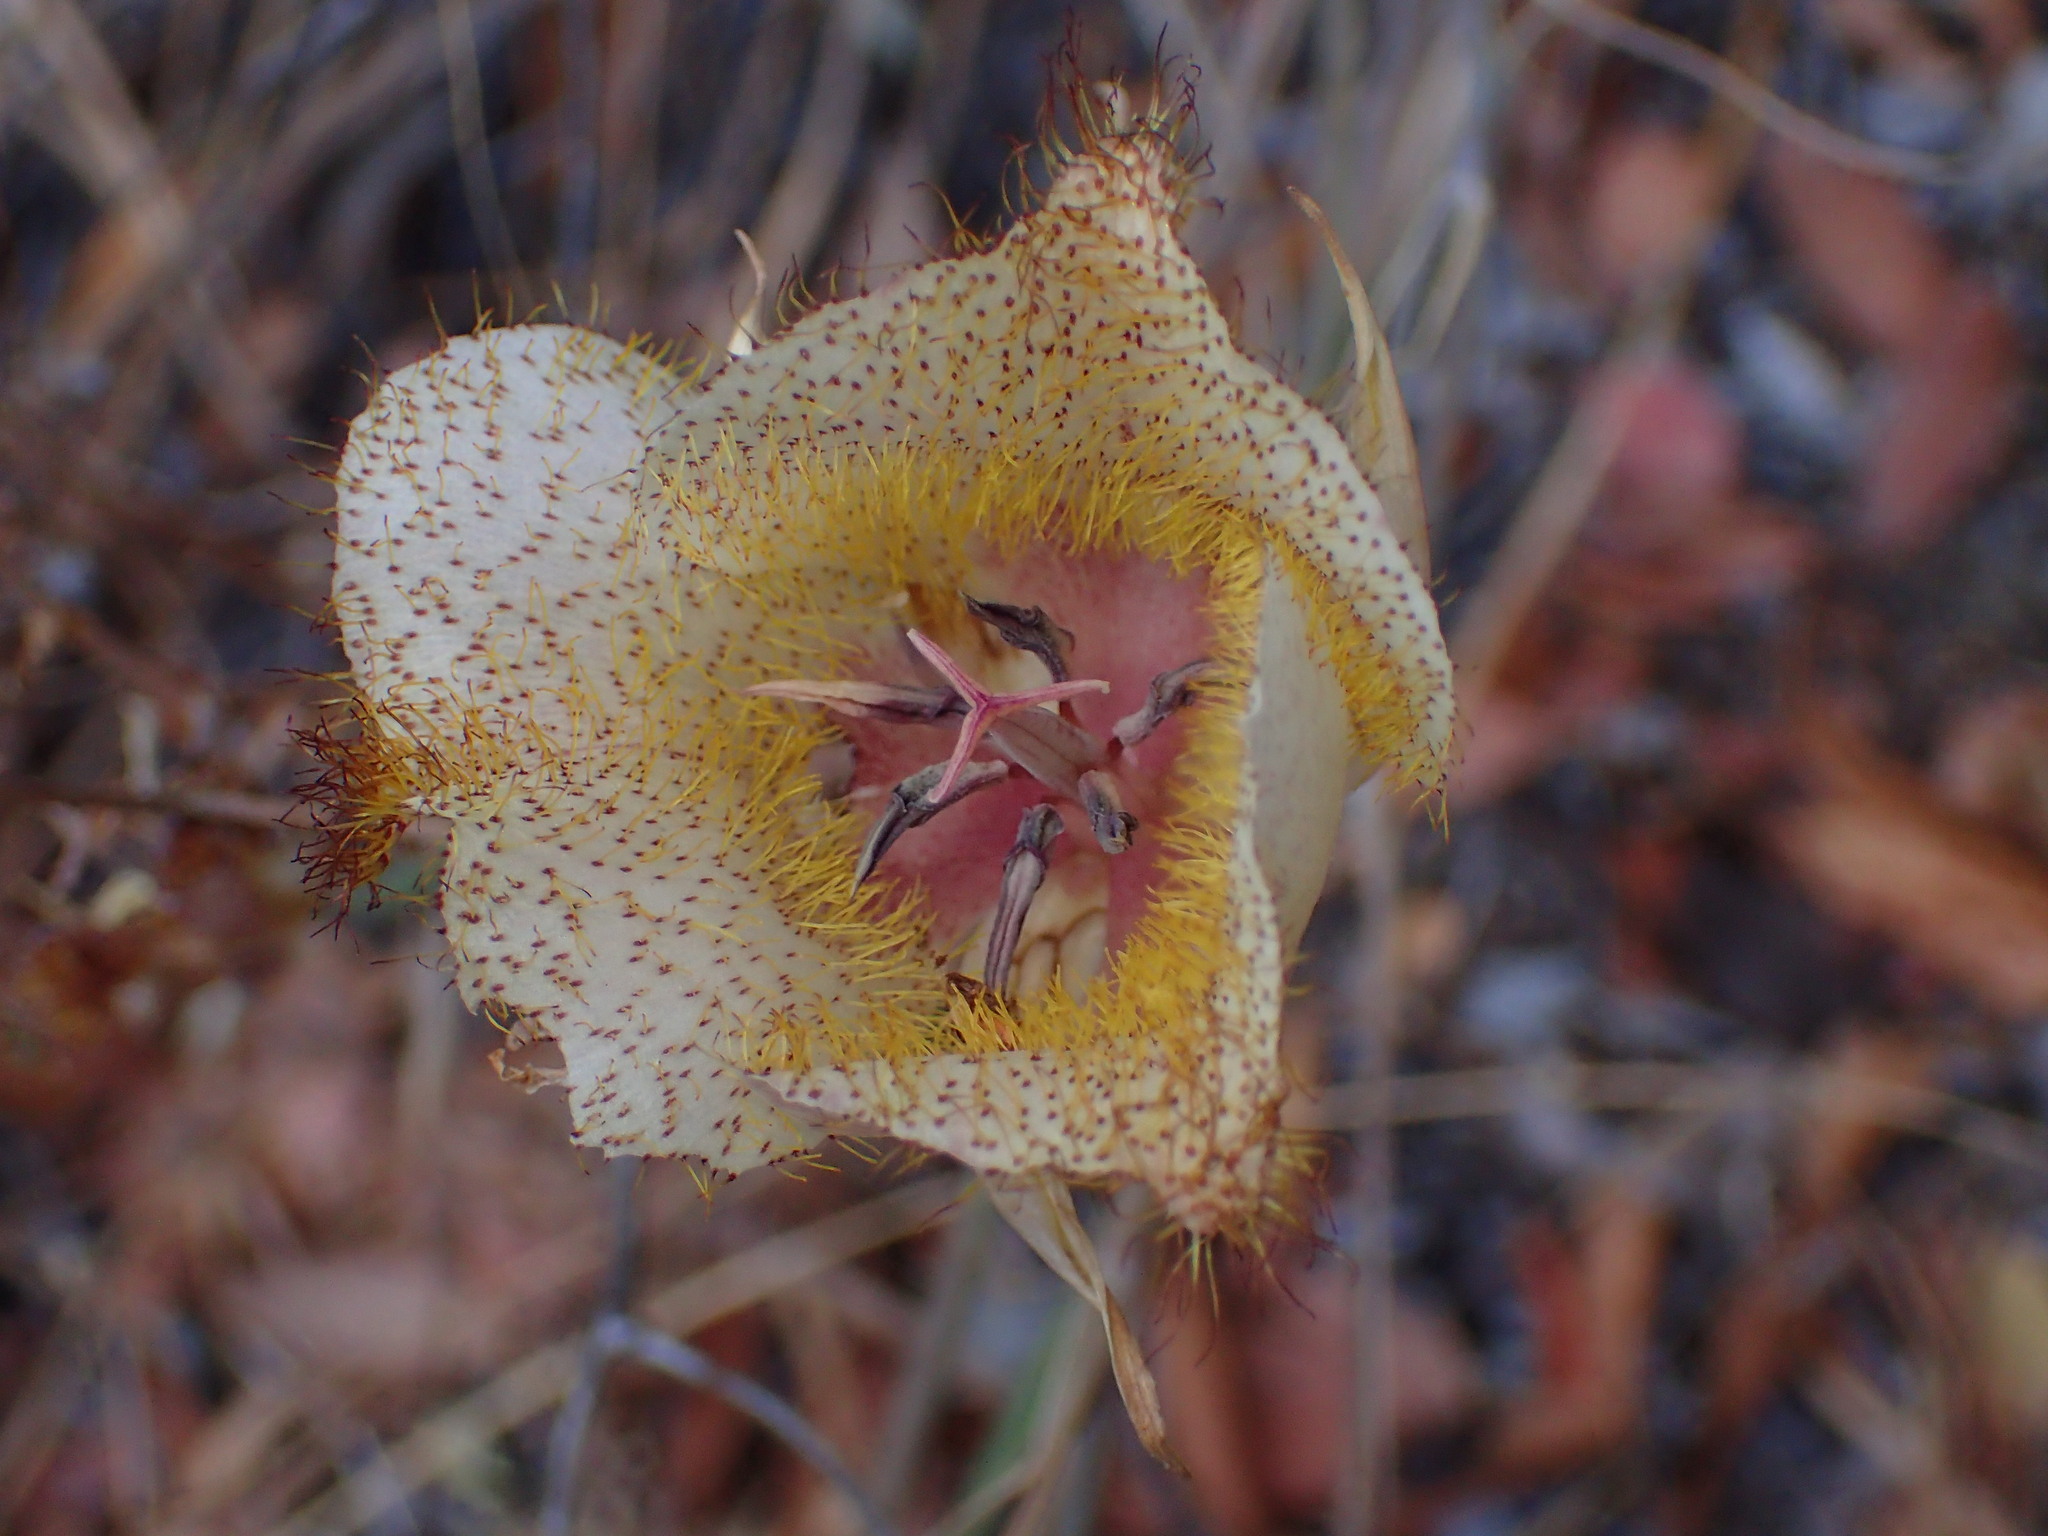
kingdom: Plantae
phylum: Tracheophyta
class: Liliopsida
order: Liliales
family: Liliaceae
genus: Calochortus
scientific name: Calochortus fimbriatus
